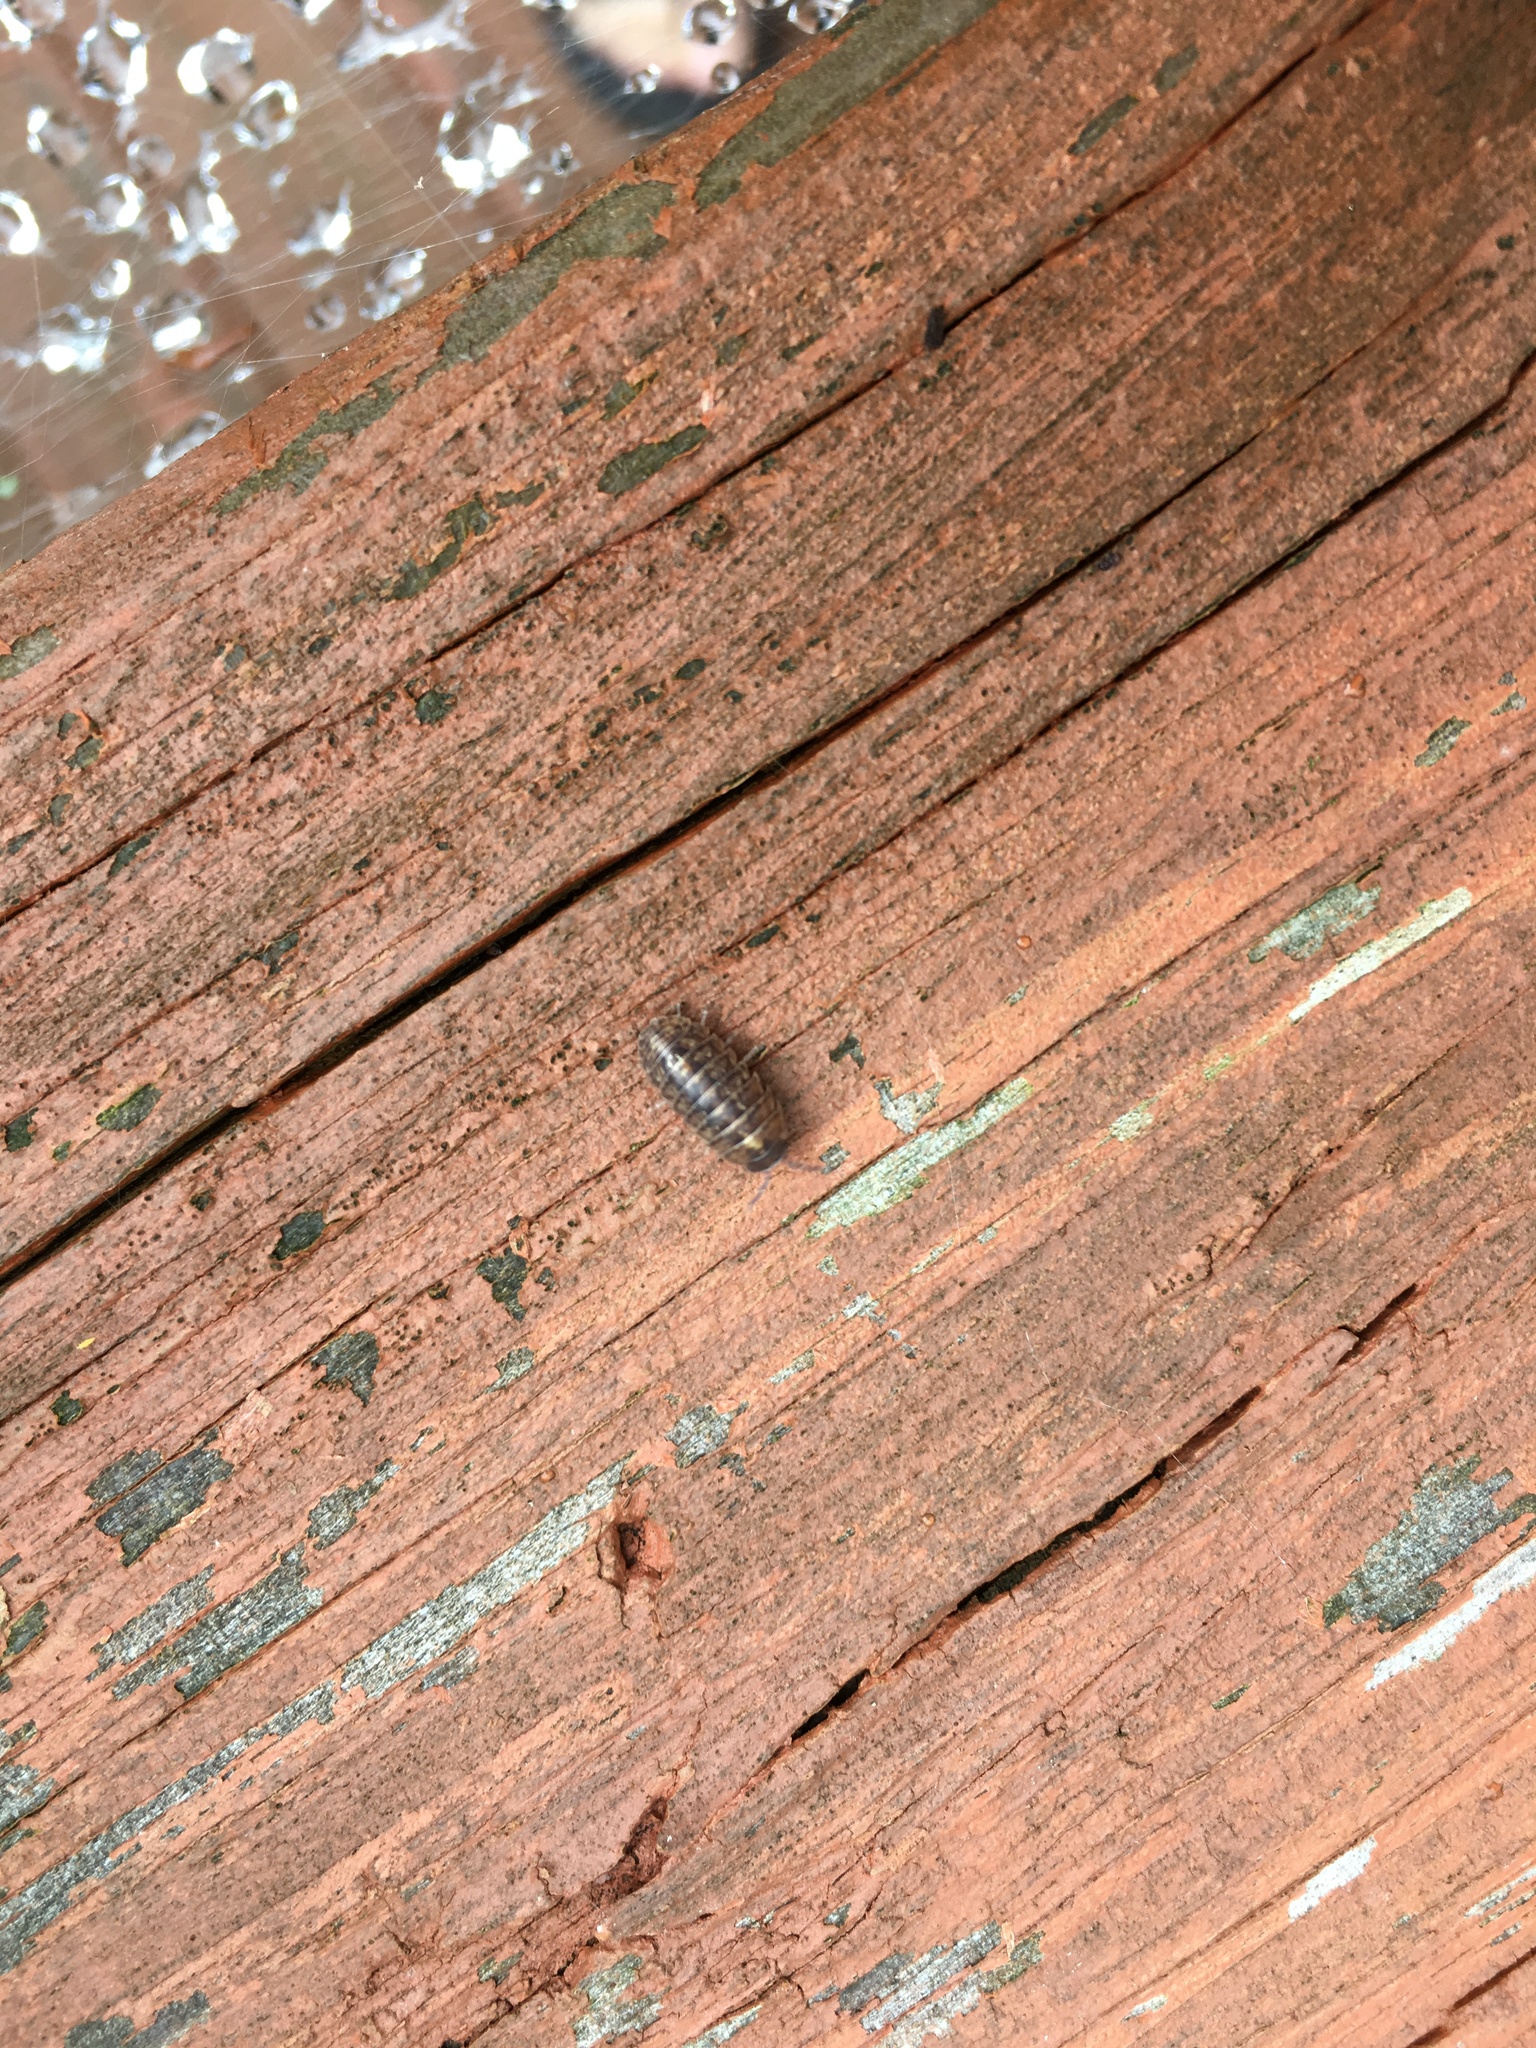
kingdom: Animalia
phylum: Arthropoda
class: Malacostraca
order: Isopoda
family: Armadillidiidae
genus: Armadillidium
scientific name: Armadillidium vulgare
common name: Common pill woodlouse
